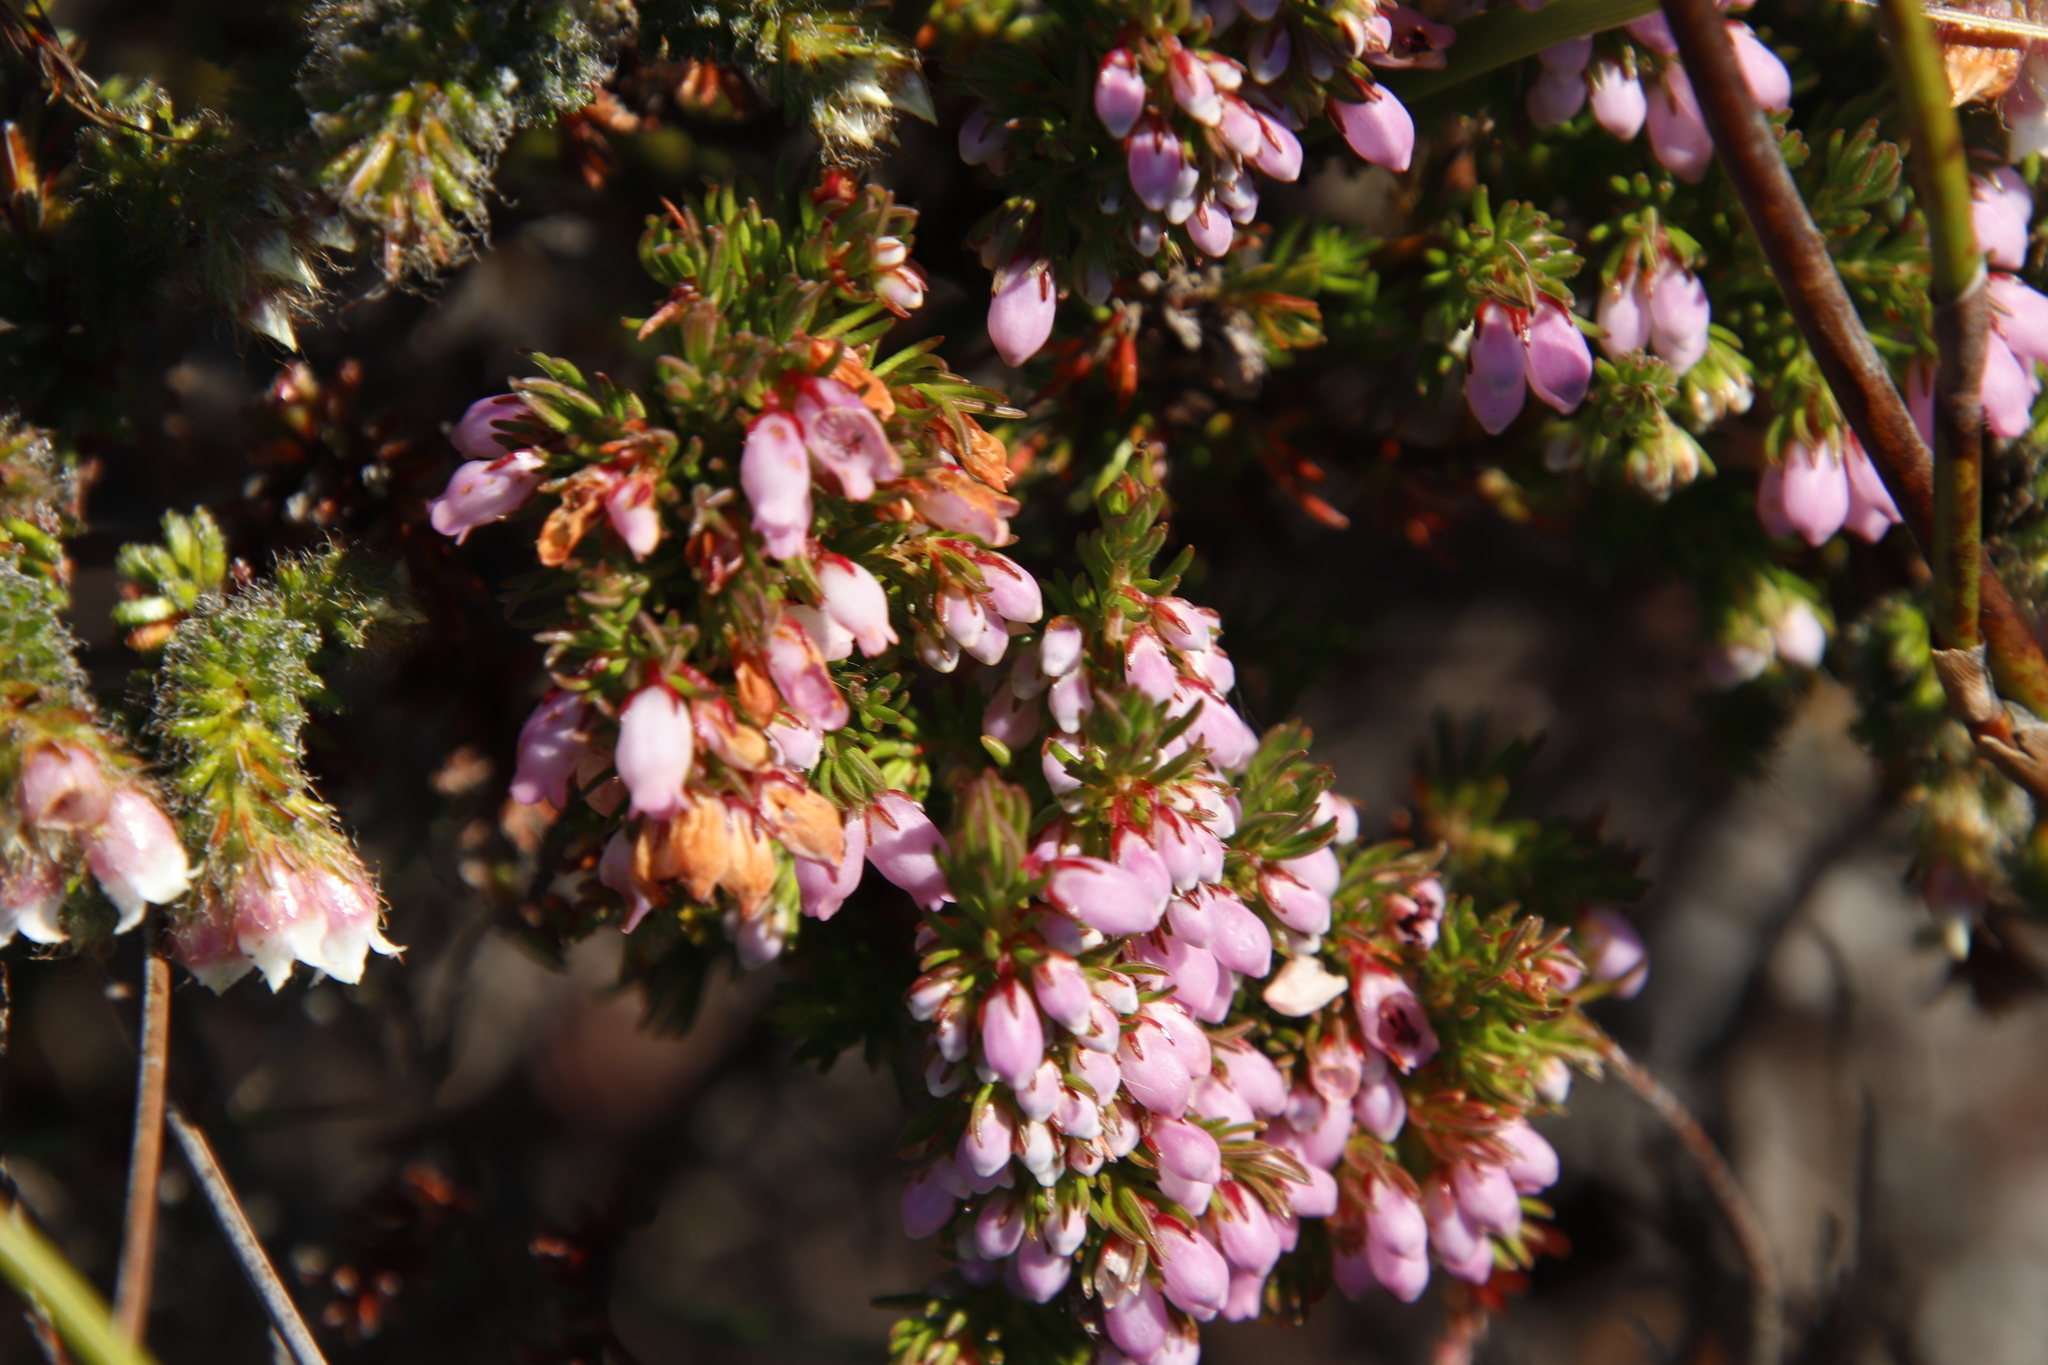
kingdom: Plantae
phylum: Tracheophyta
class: Magnoliopsida
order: Ericales
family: Ericaceae
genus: Erica
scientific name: Erica sitiens
